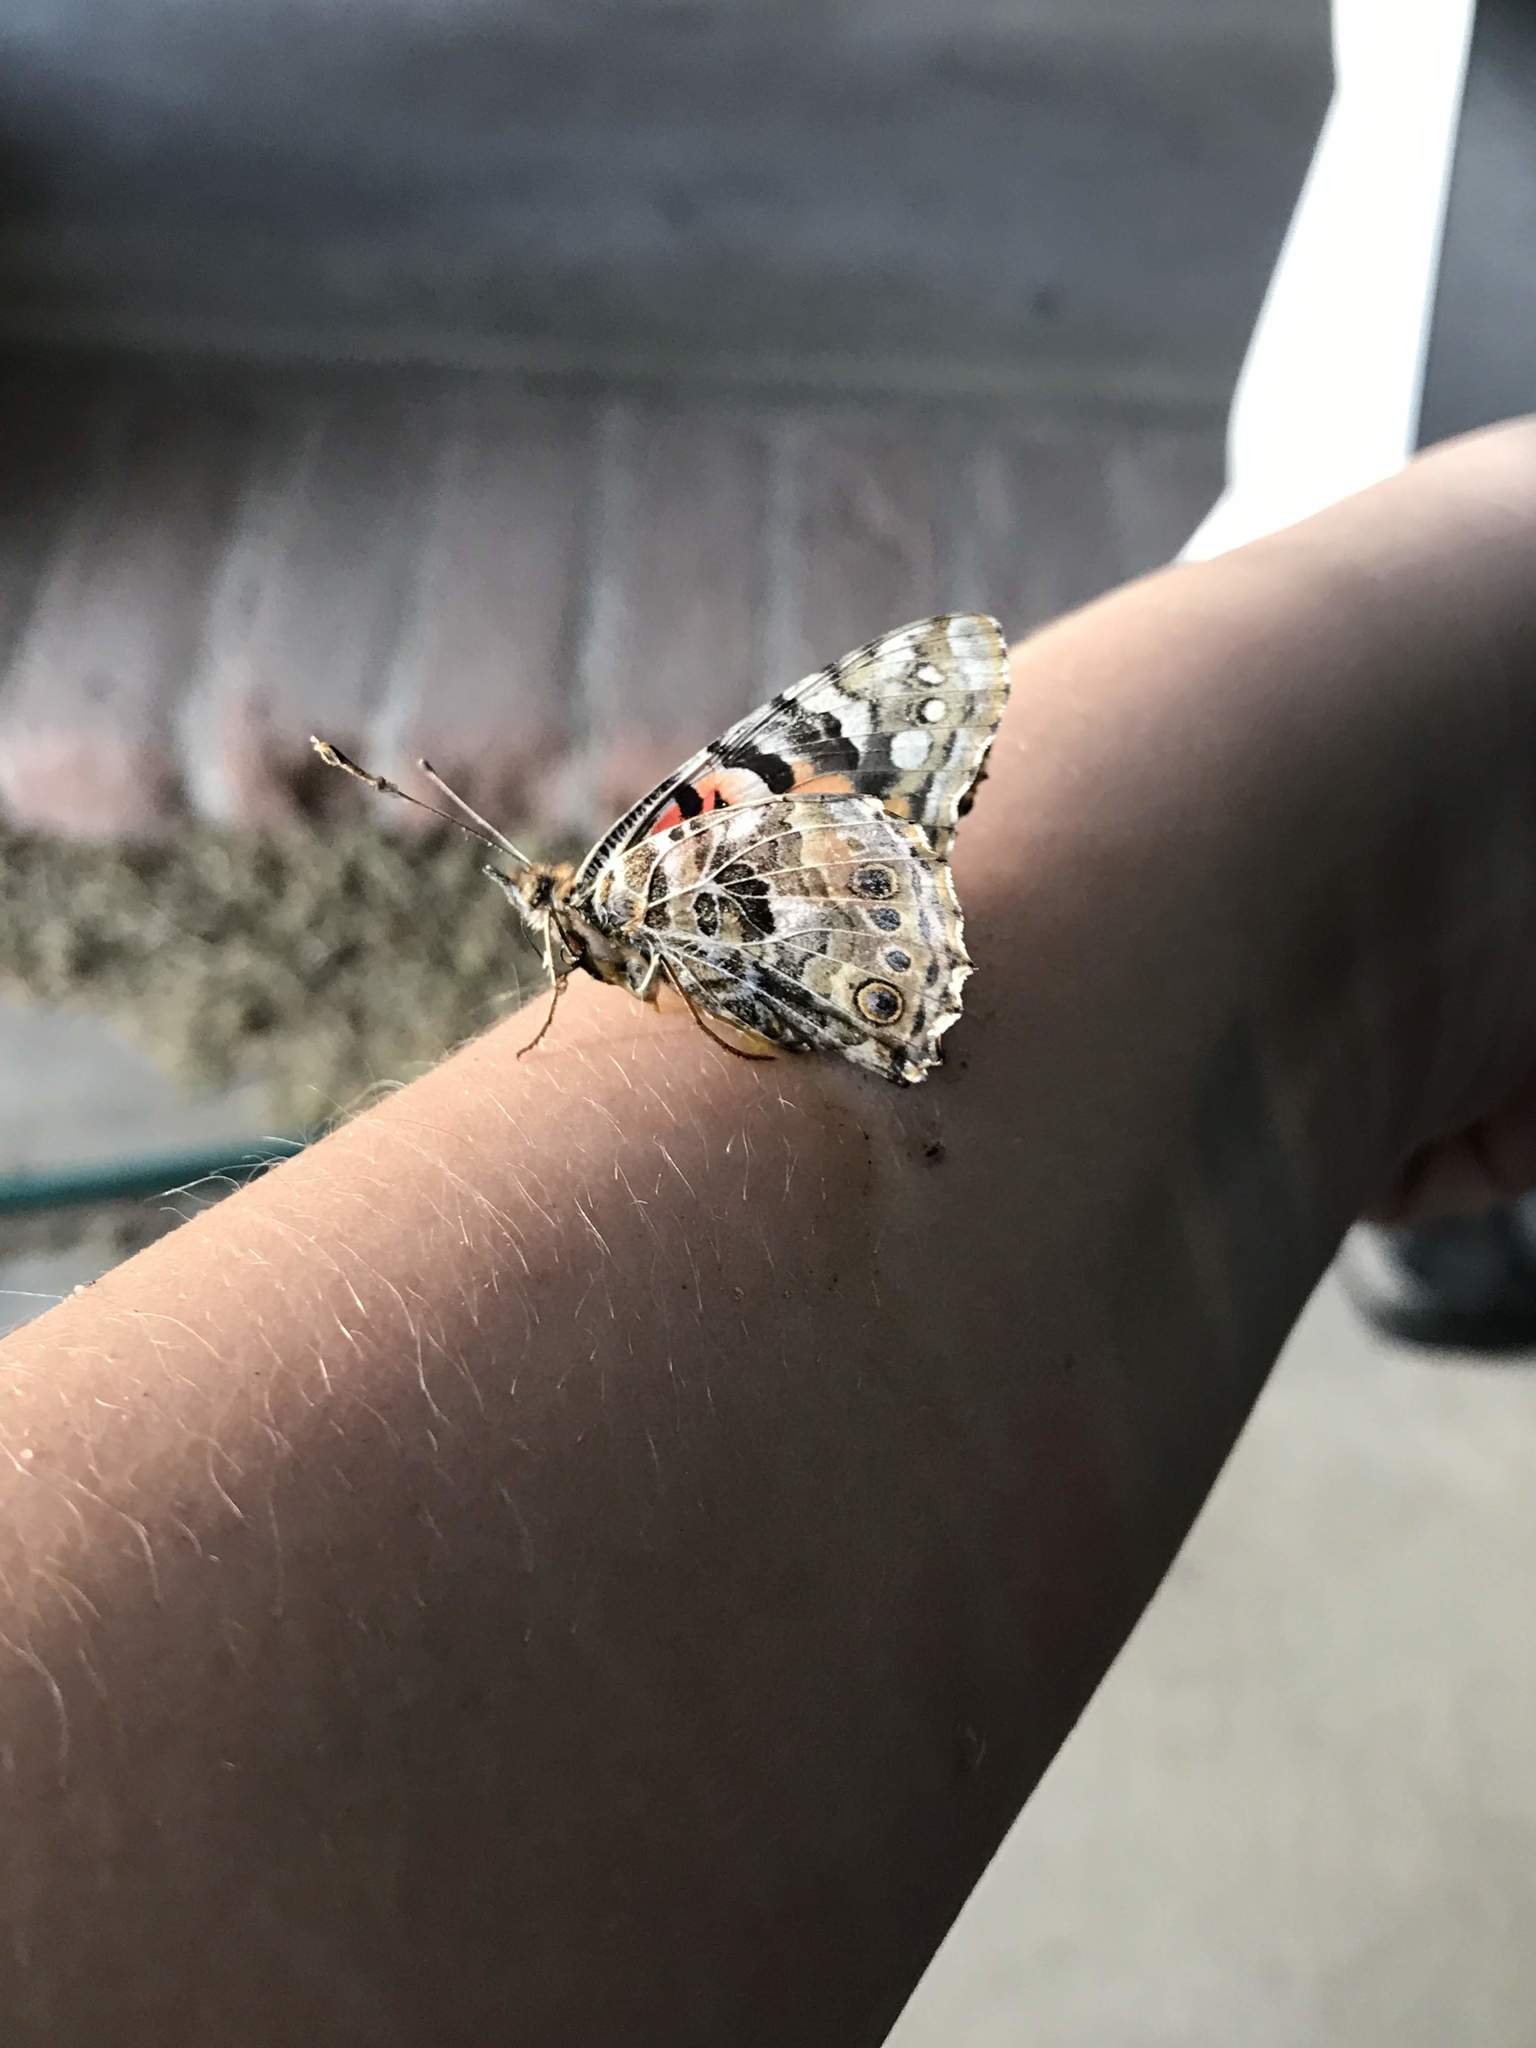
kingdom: Animalia
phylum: Arthropoda
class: Insecta
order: Lepidoptera
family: Nymphalidae
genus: Vanessa
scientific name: Vanessa cardui
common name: Painted lady
